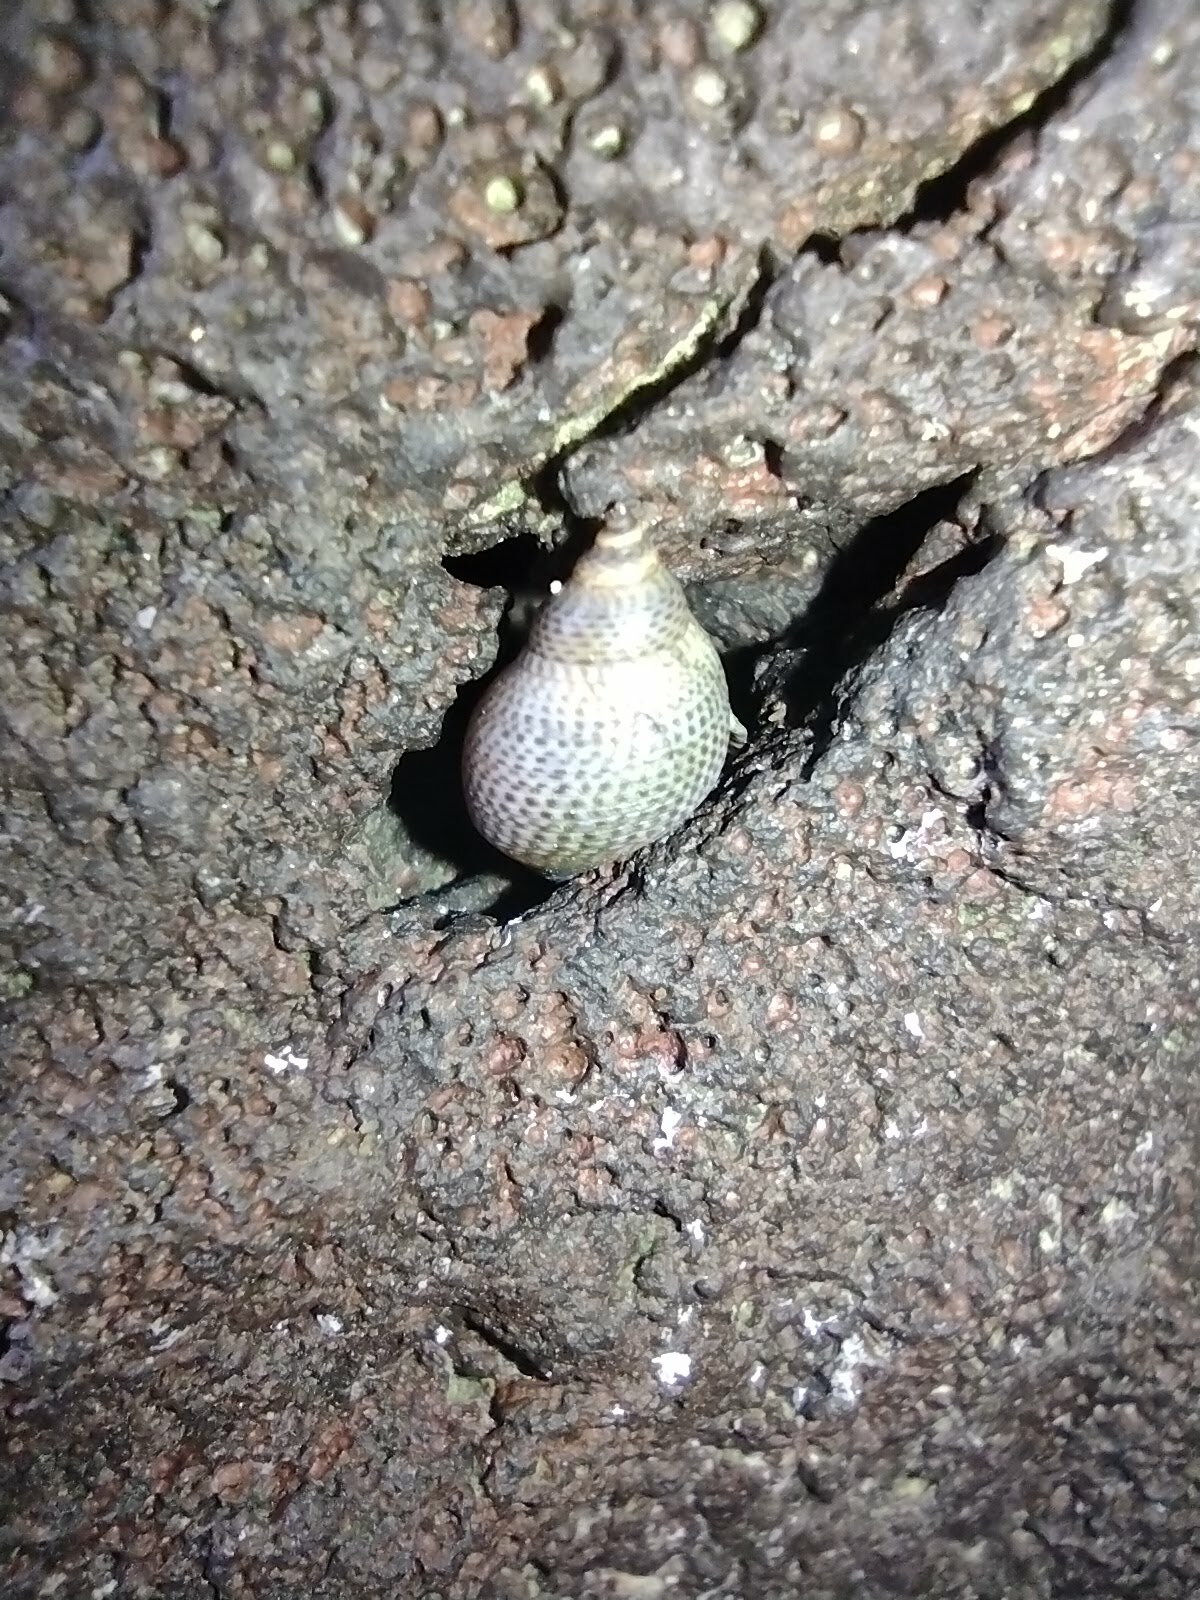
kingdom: Animalia
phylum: Mollusca
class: Gastropoda
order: Littorinimorpha
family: Littorinidae
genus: Littoraria
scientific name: Littoraria pintado
